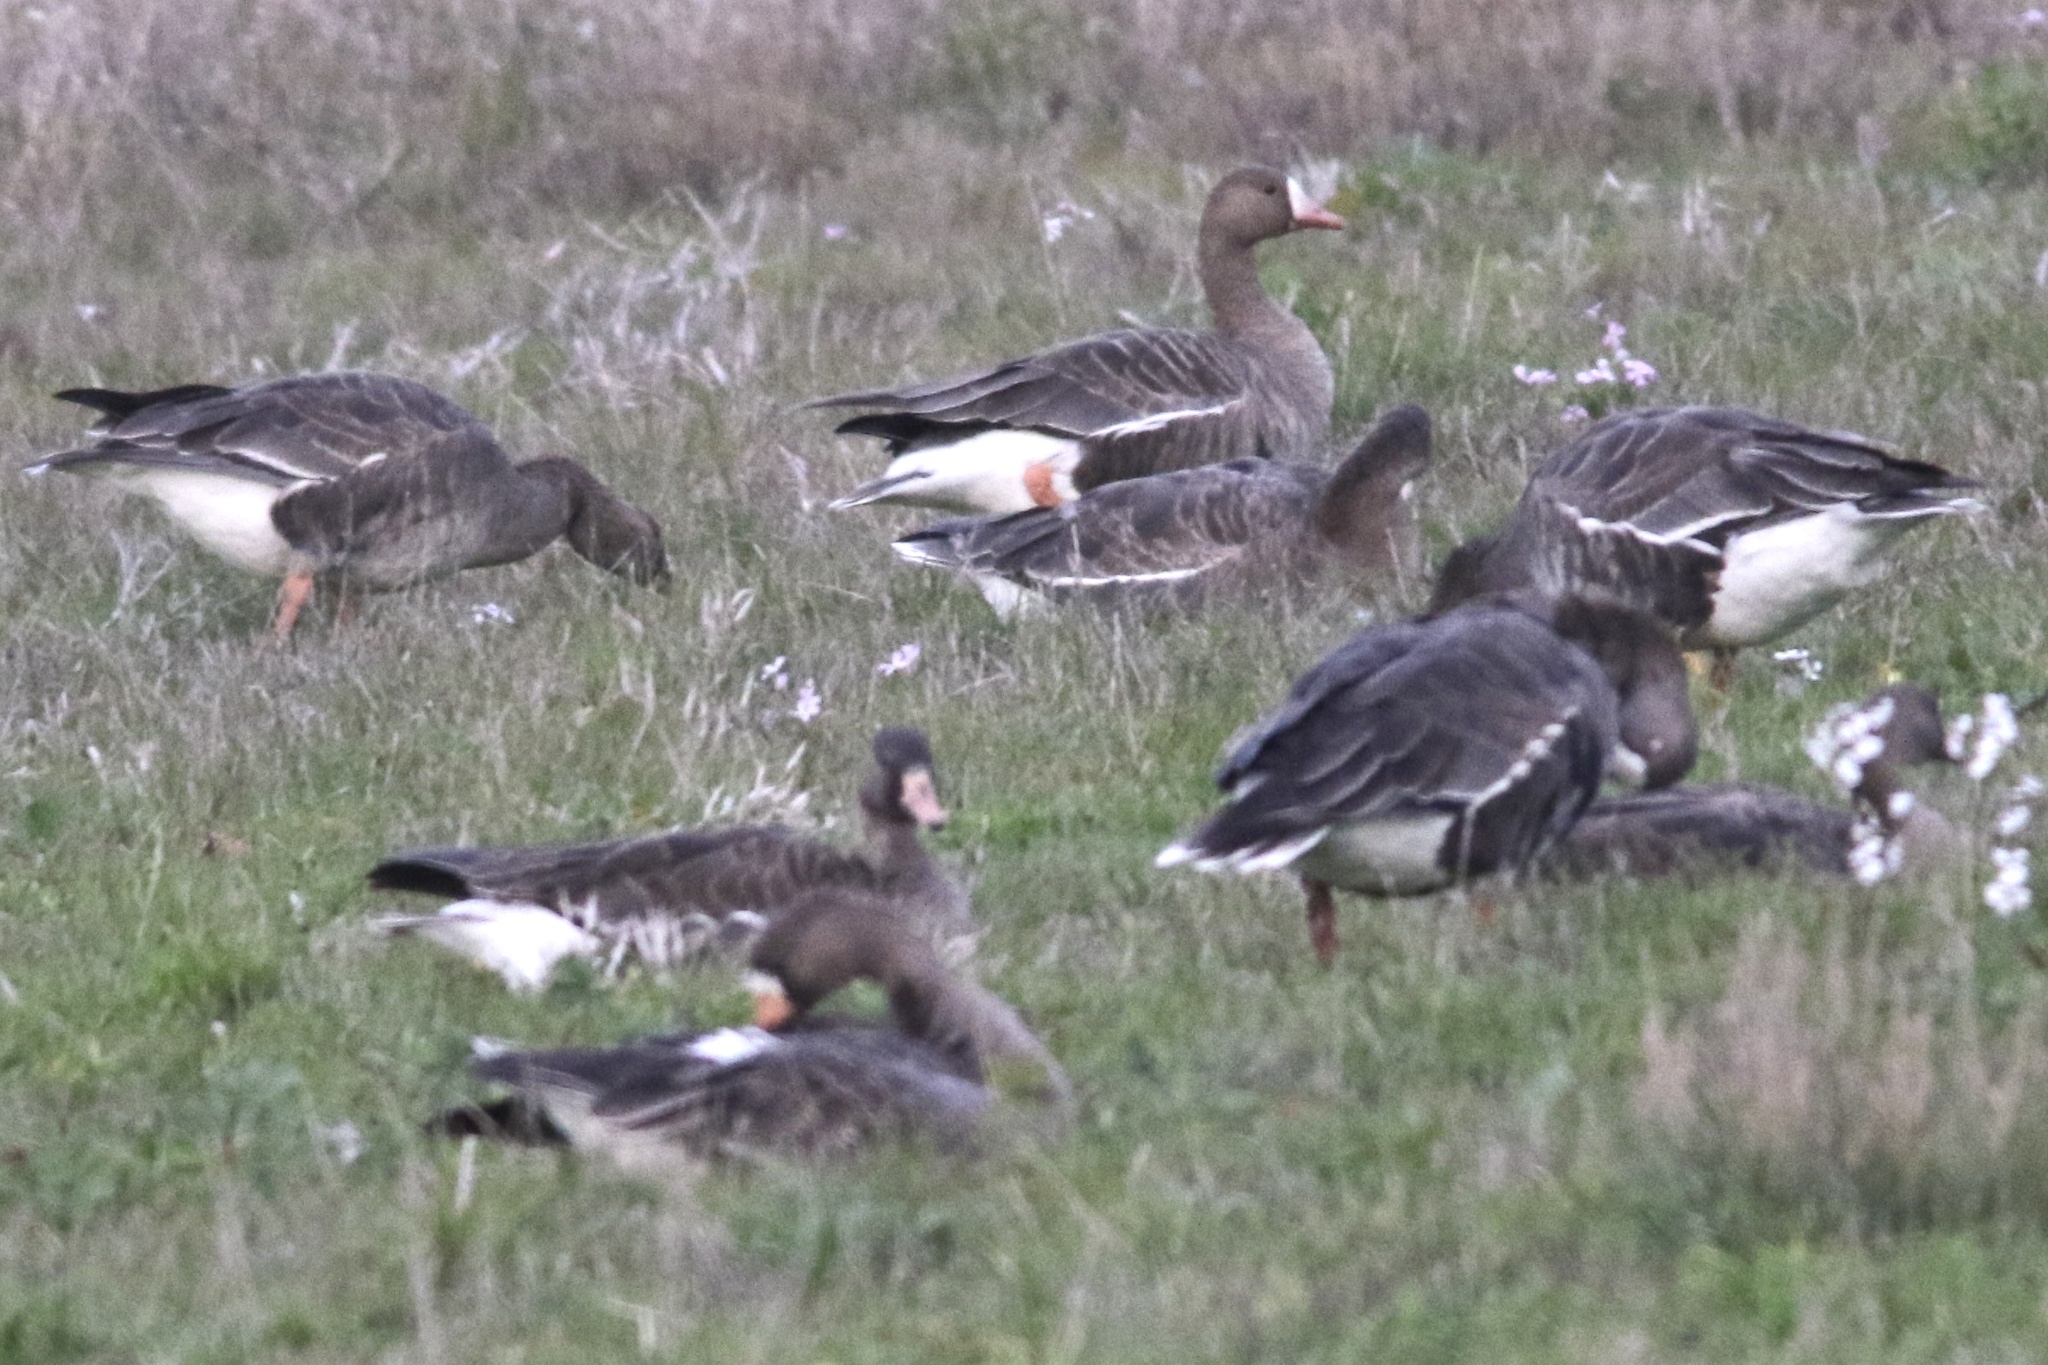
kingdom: Animalia
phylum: Chordata
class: Aves
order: Anseriformes
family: Anatidae
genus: Anser
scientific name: Anser albifrons
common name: Greater white-fronted goose
